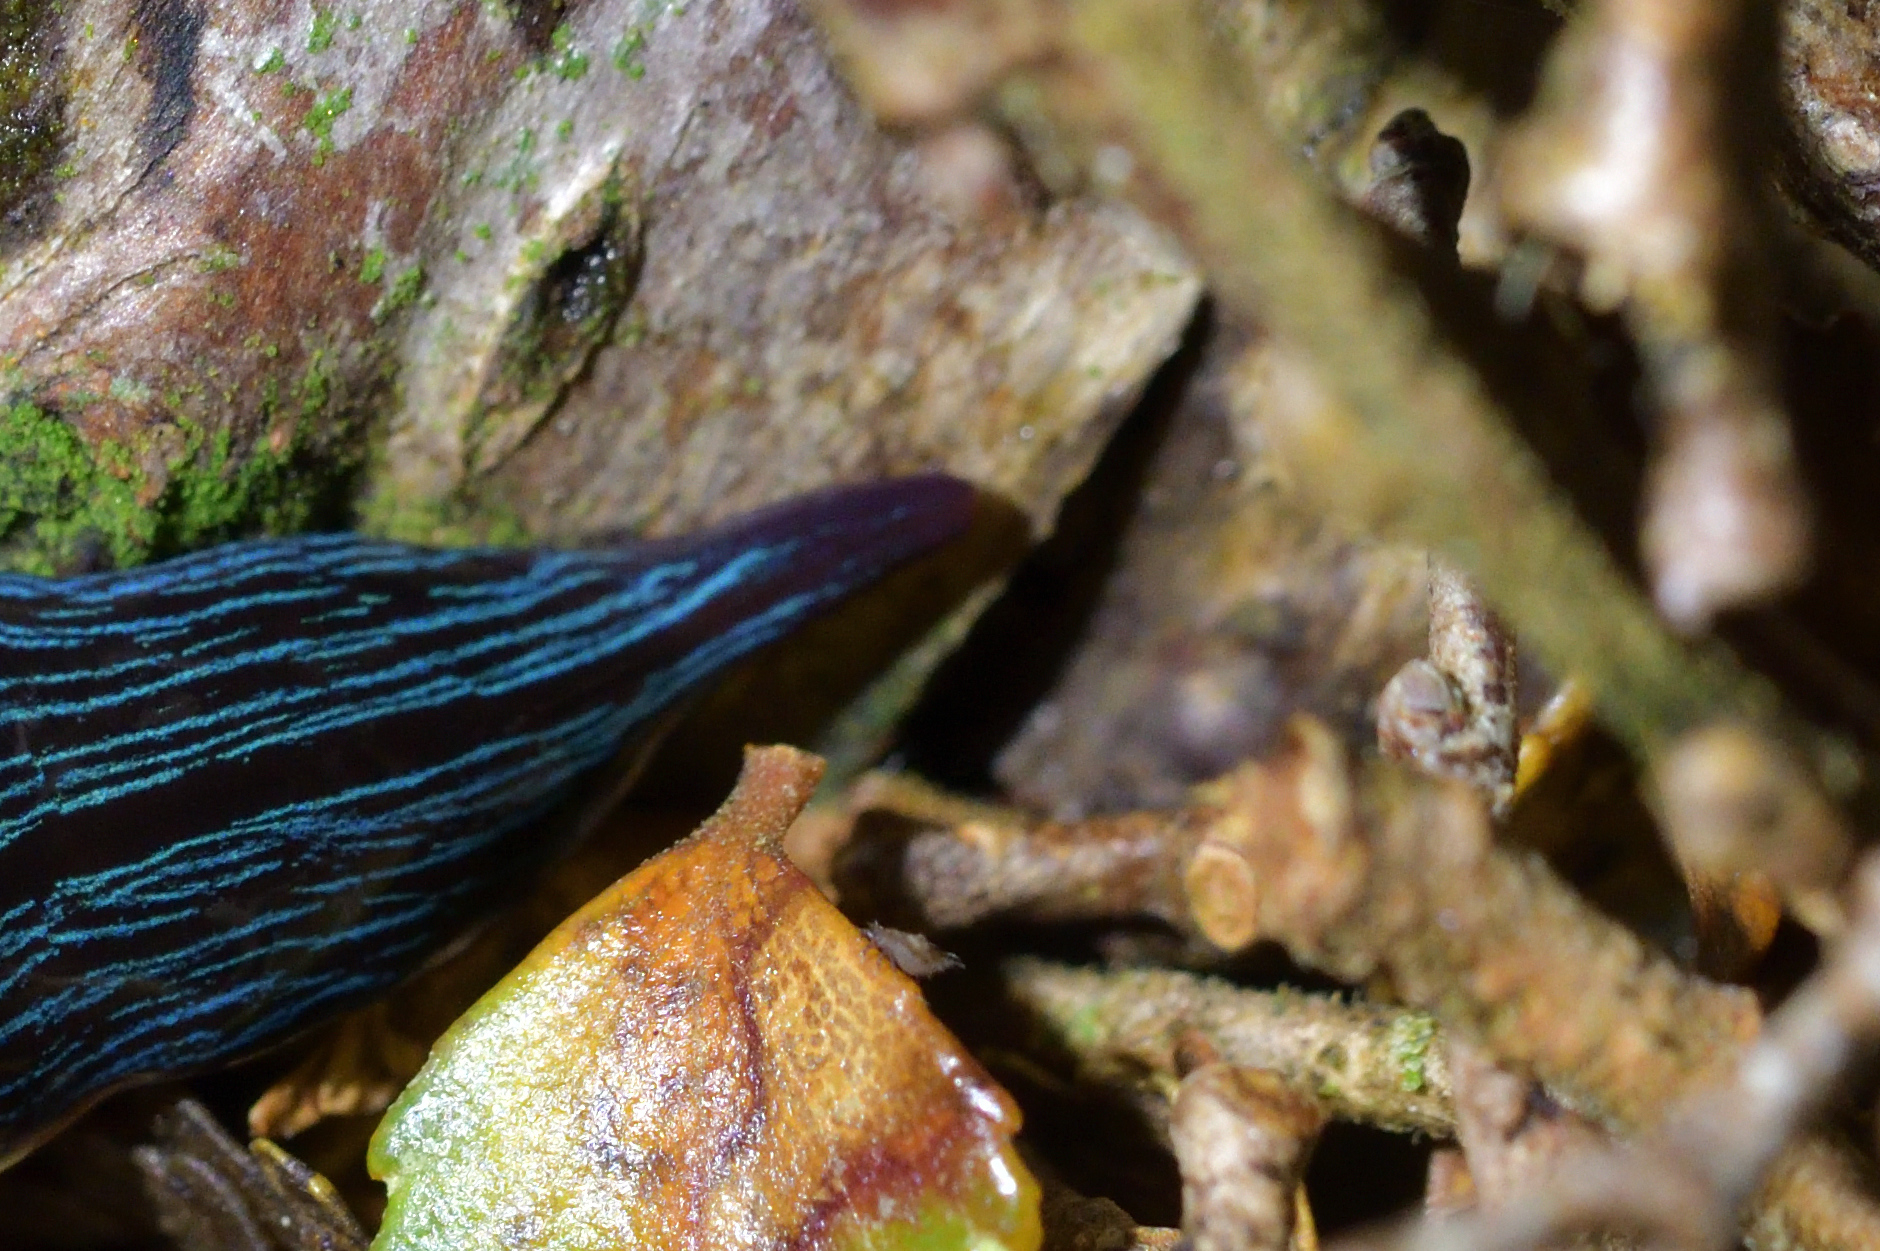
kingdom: Animalia
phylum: Platyhelminthes
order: Tricladida
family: Geoplanidae
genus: Newzealandia
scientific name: Newzealandia
